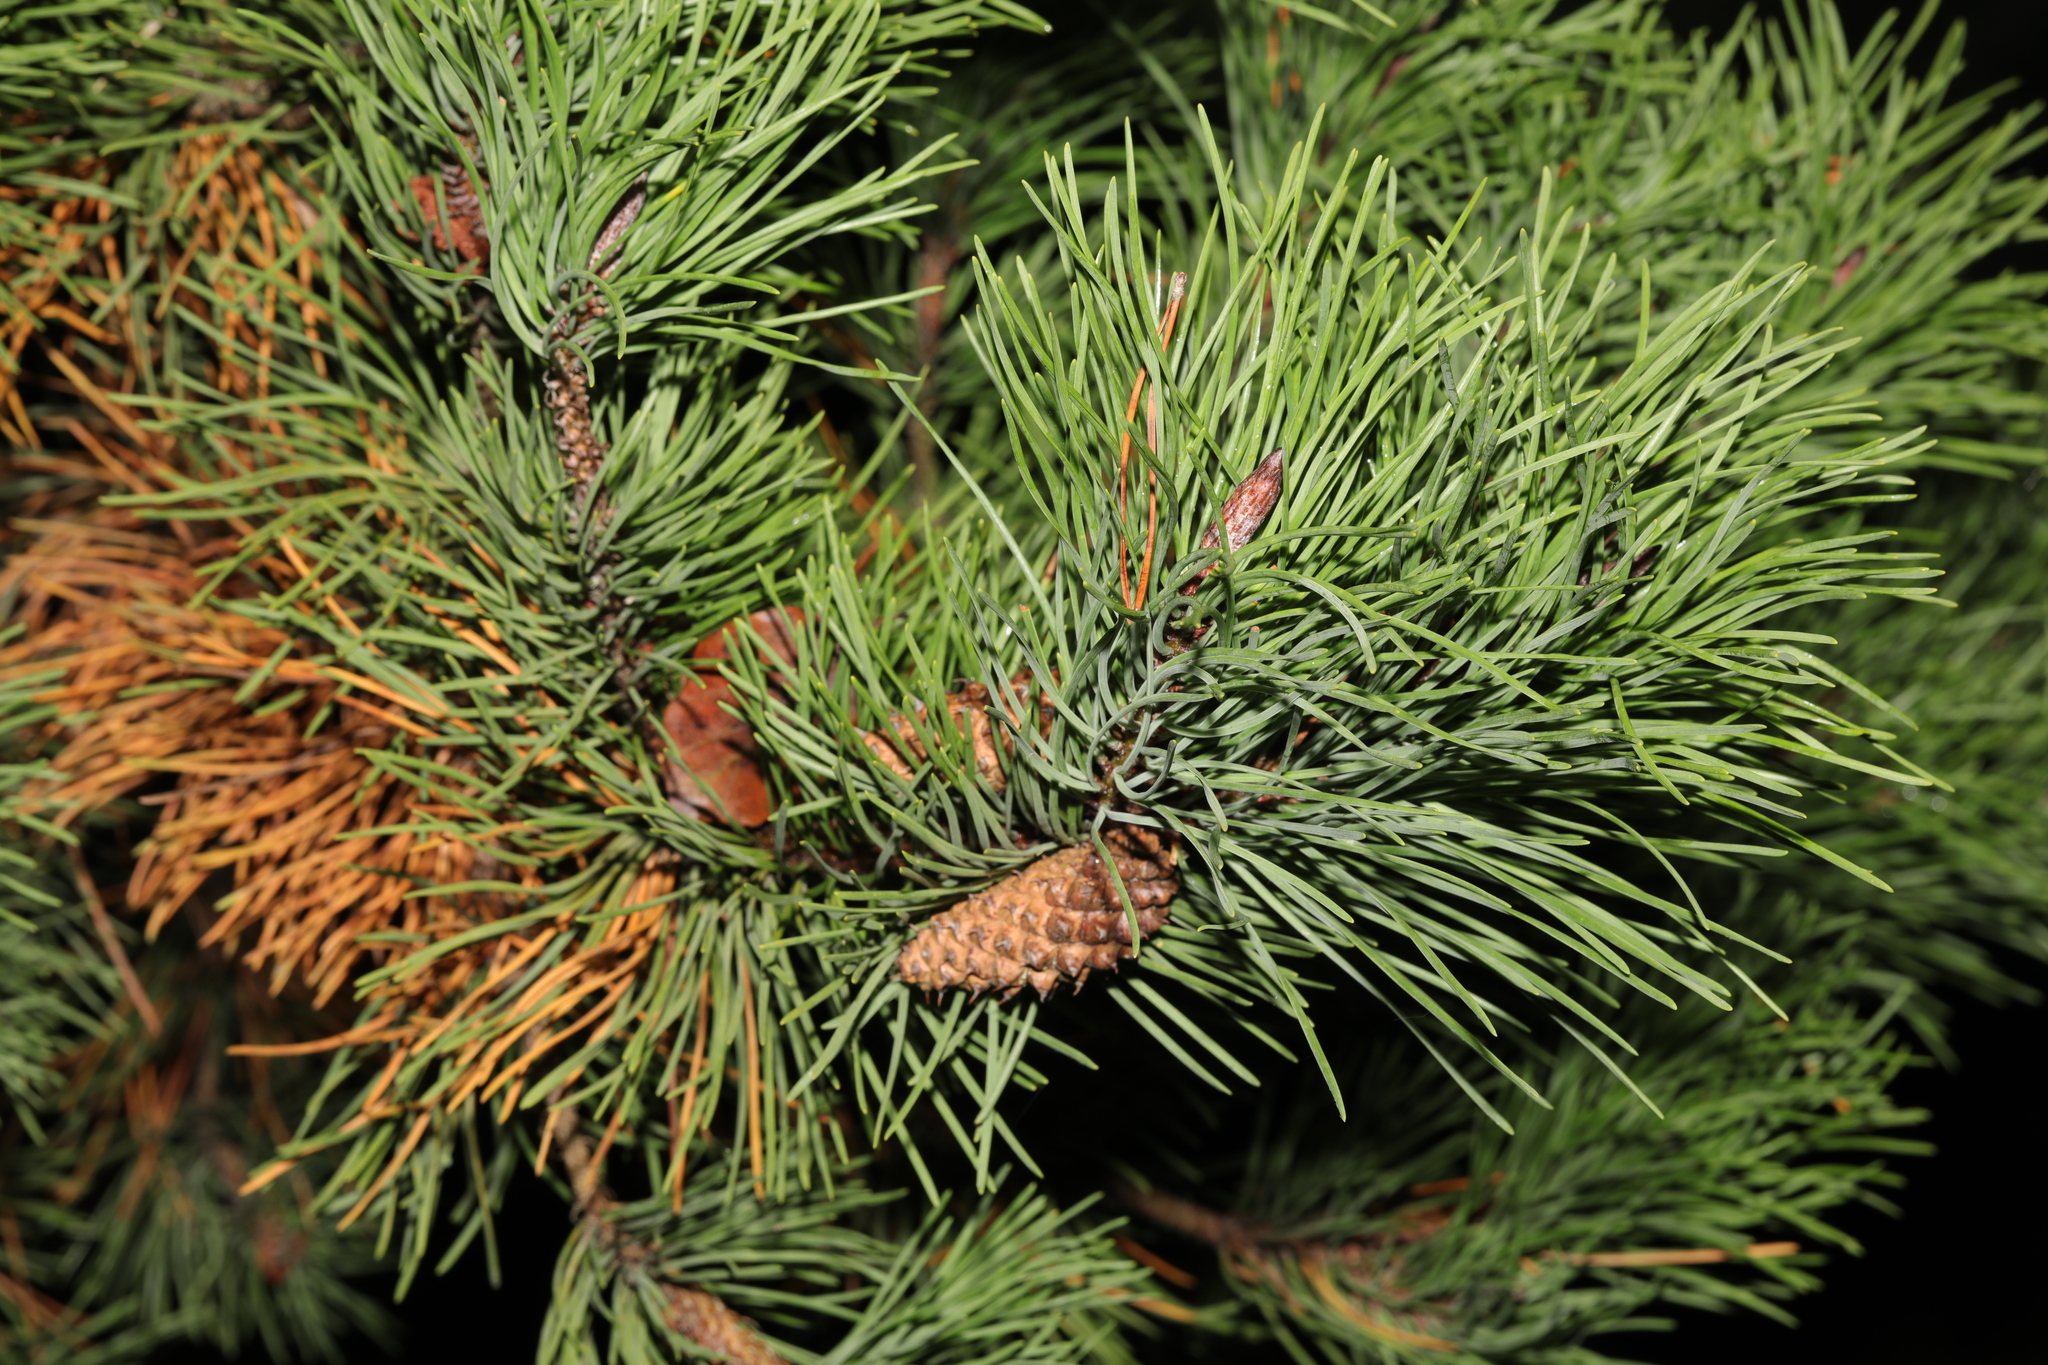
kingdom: Plantae
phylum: Tracheophyta
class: Pinopsida
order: Pinales
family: Pinaceae
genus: Pinus
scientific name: Pinus sylvestris
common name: Scots pine
